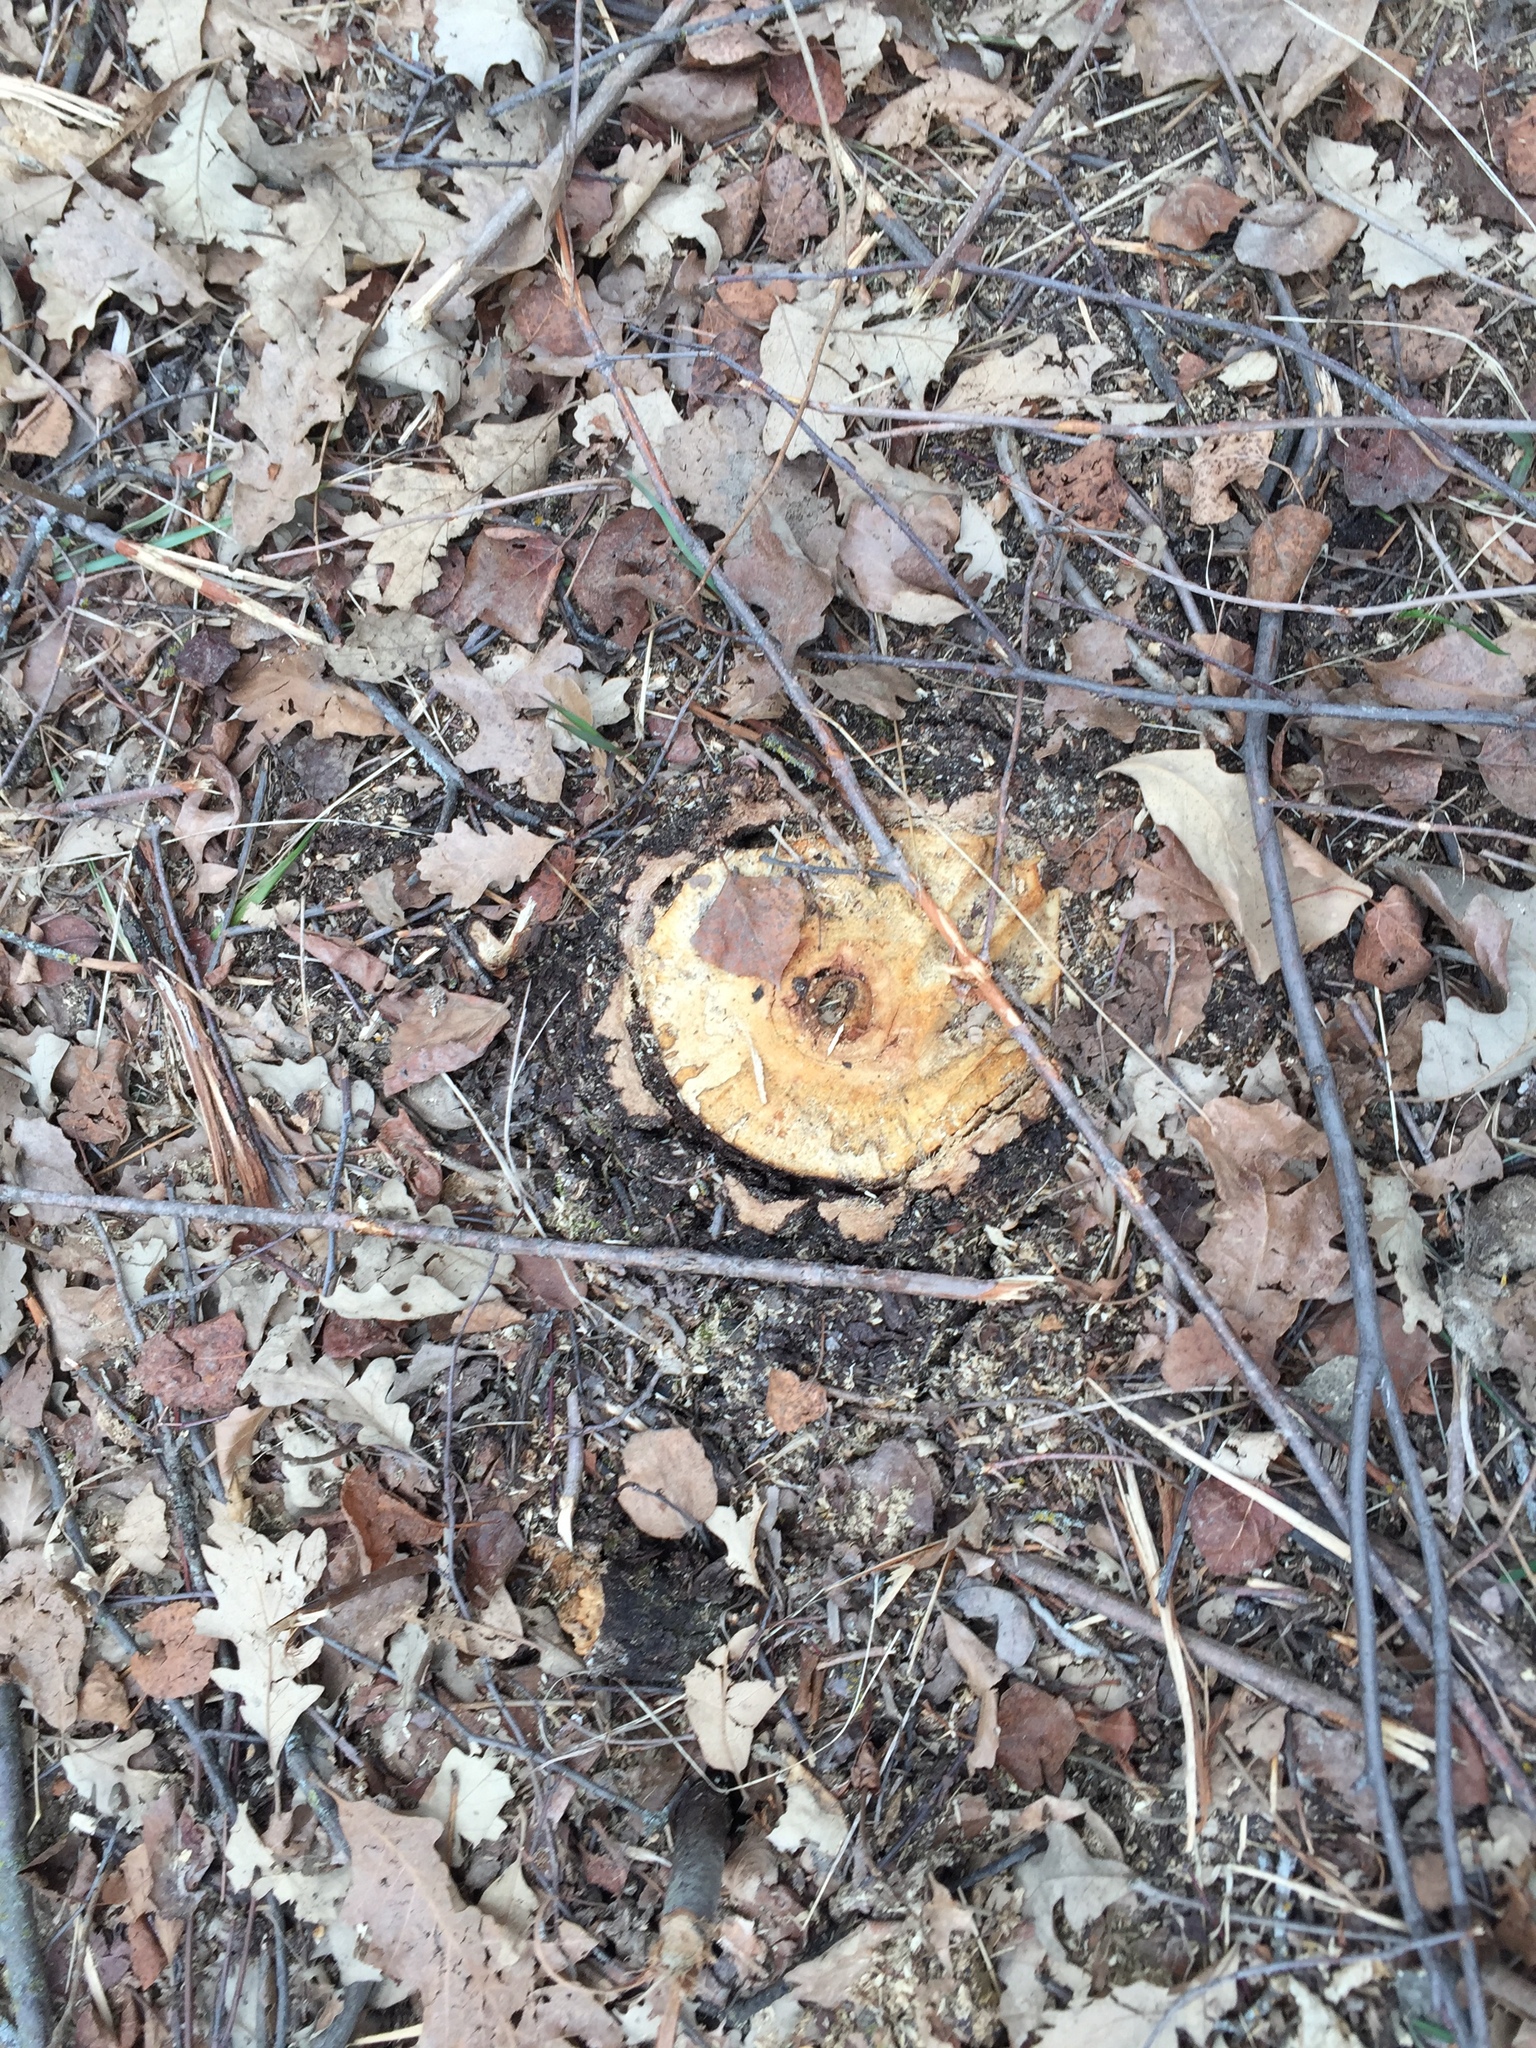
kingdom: Plantae
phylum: Tracheophyta
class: Magnoliopsida
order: Fagales
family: Fagaceae
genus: Quercus
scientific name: Quercus macrocarpa
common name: Bur oak
